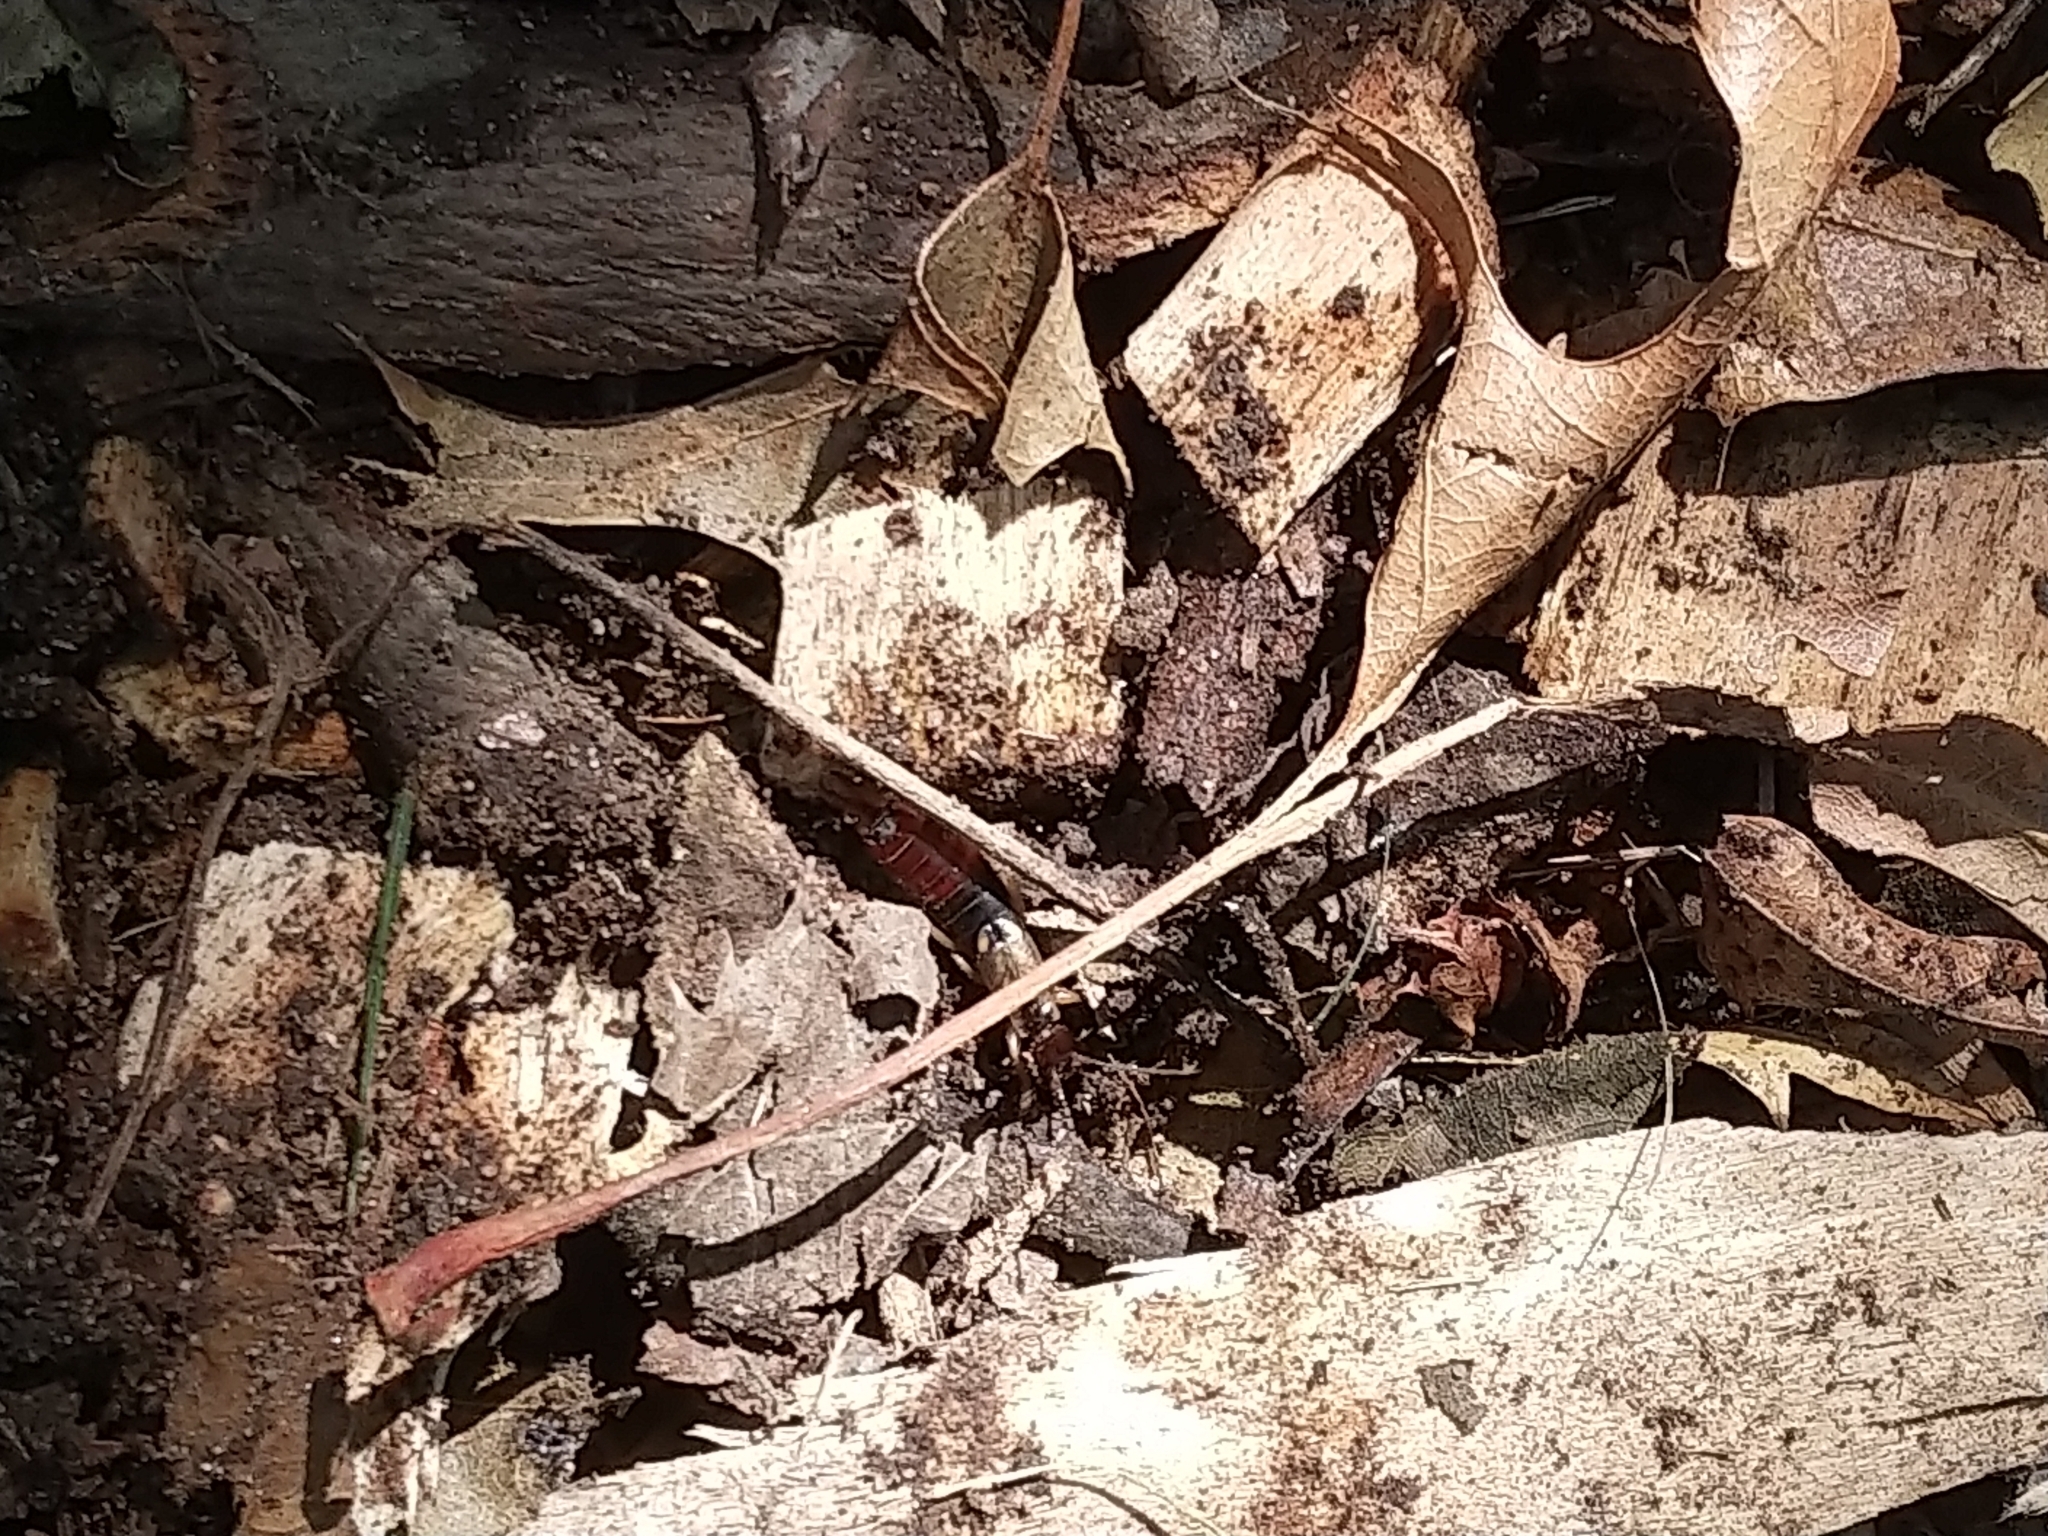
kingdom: Animalia
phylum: Arthropoda
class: Insecta
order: Dermaptera
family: Forficulidae
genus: Forficula
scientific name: Forficula
